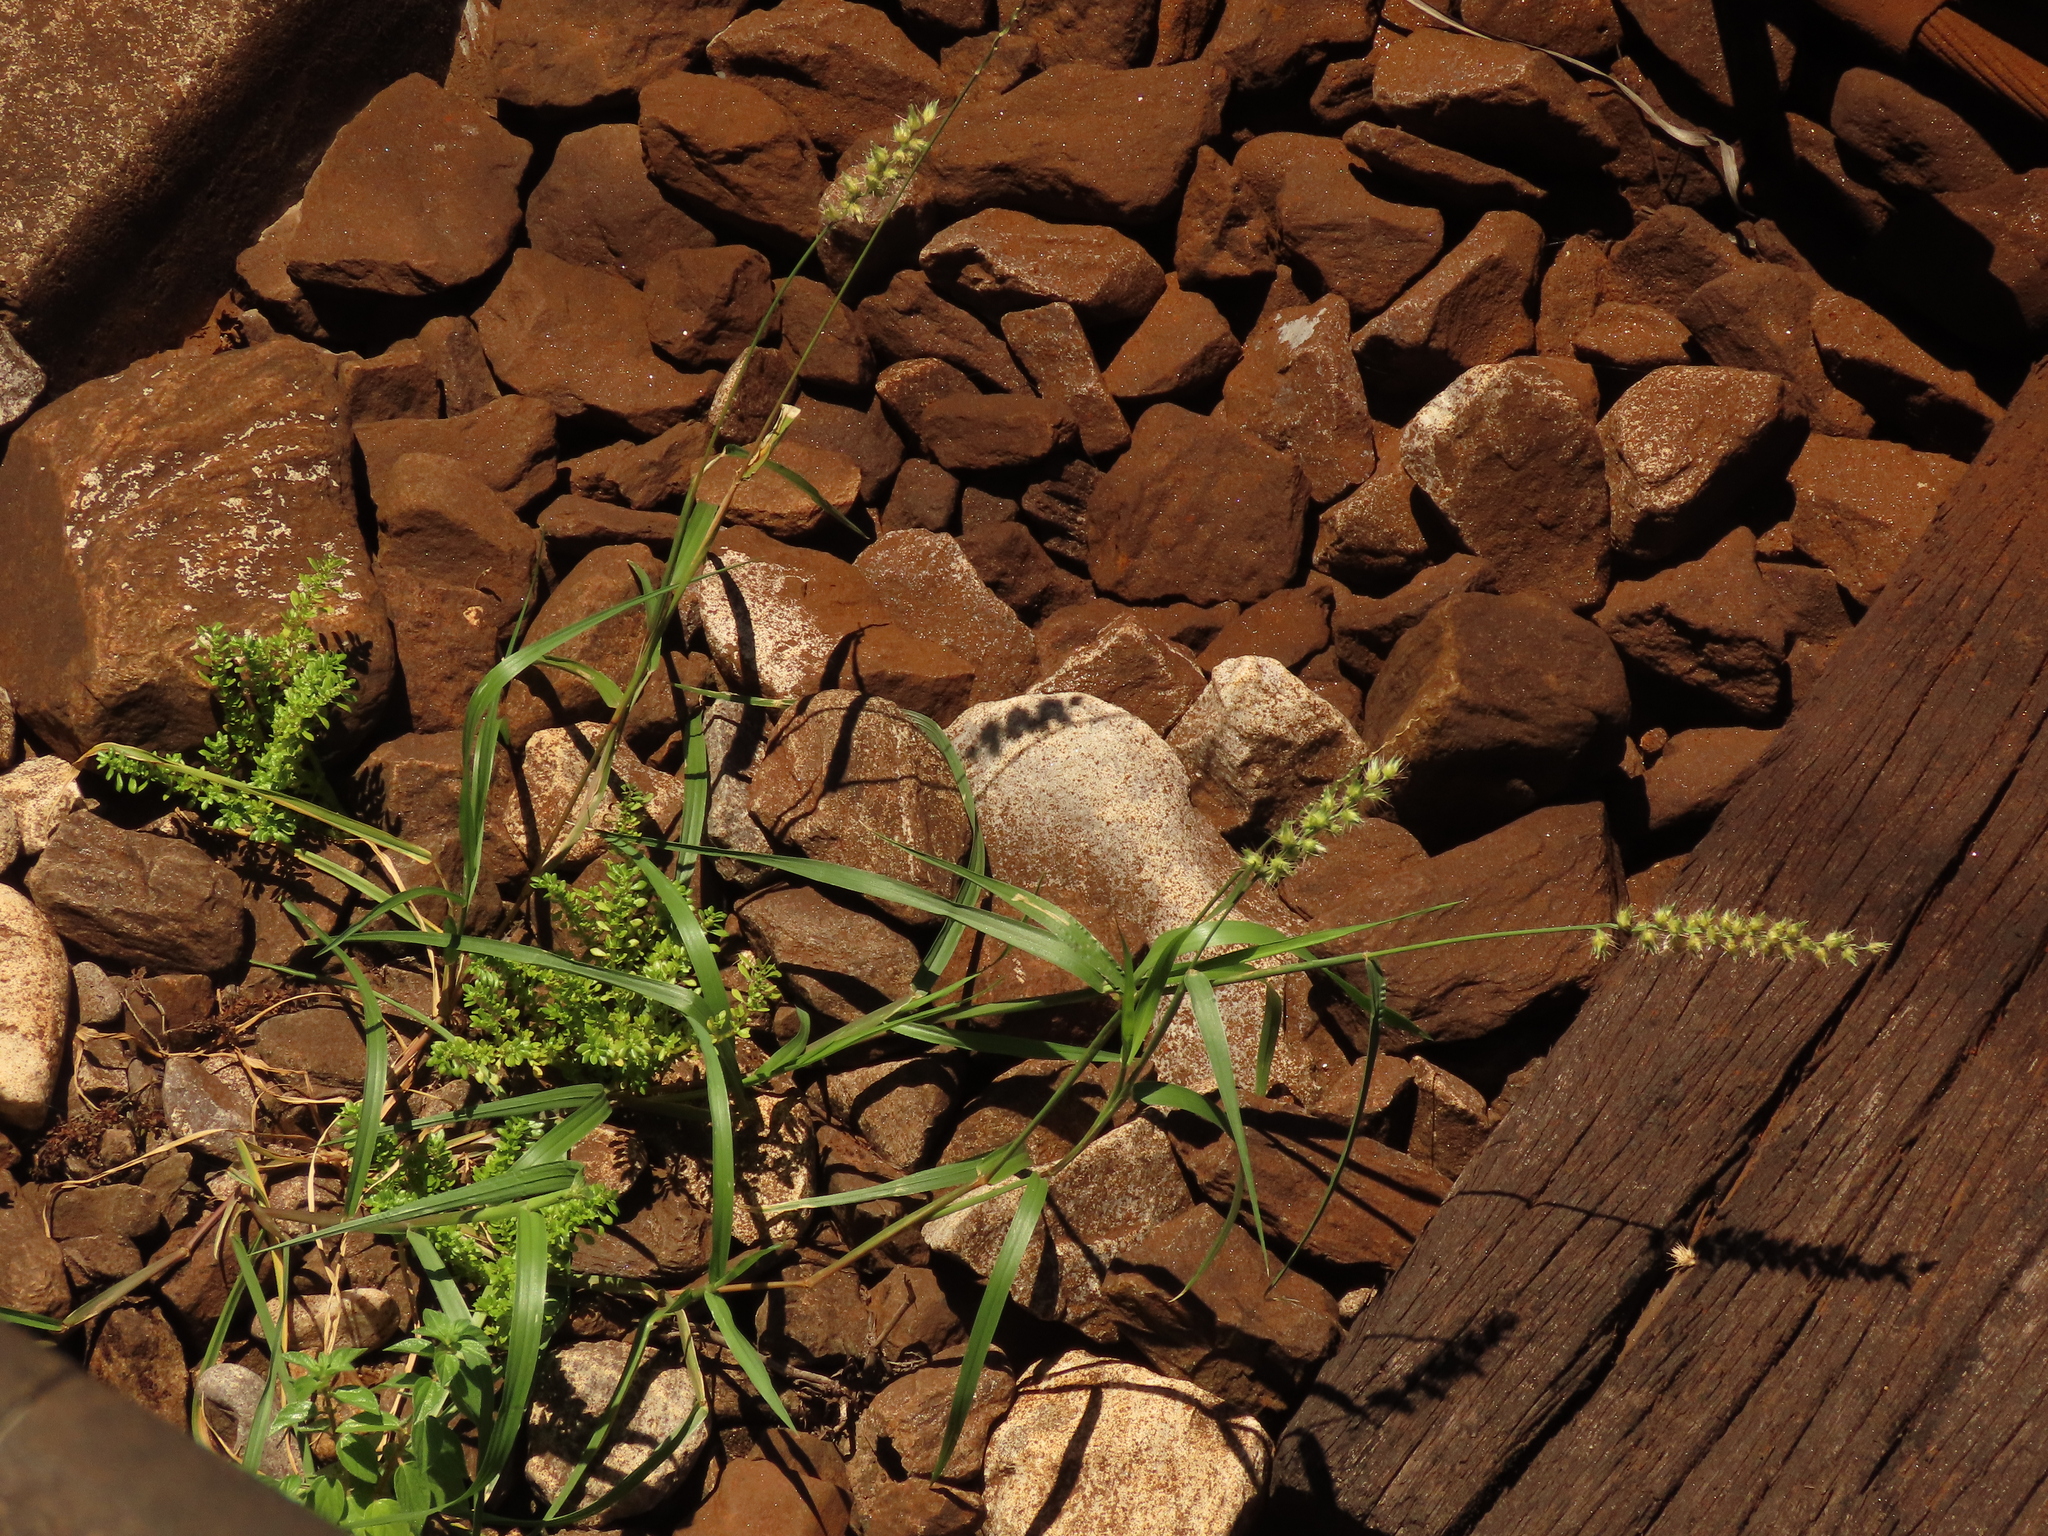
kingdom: Plantae
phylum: Tracheophyta
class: Liliopsida
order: Poales
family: Poaceae
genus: Cenchrus
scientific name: Cenchrus echinatus
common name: Southern sandbur
